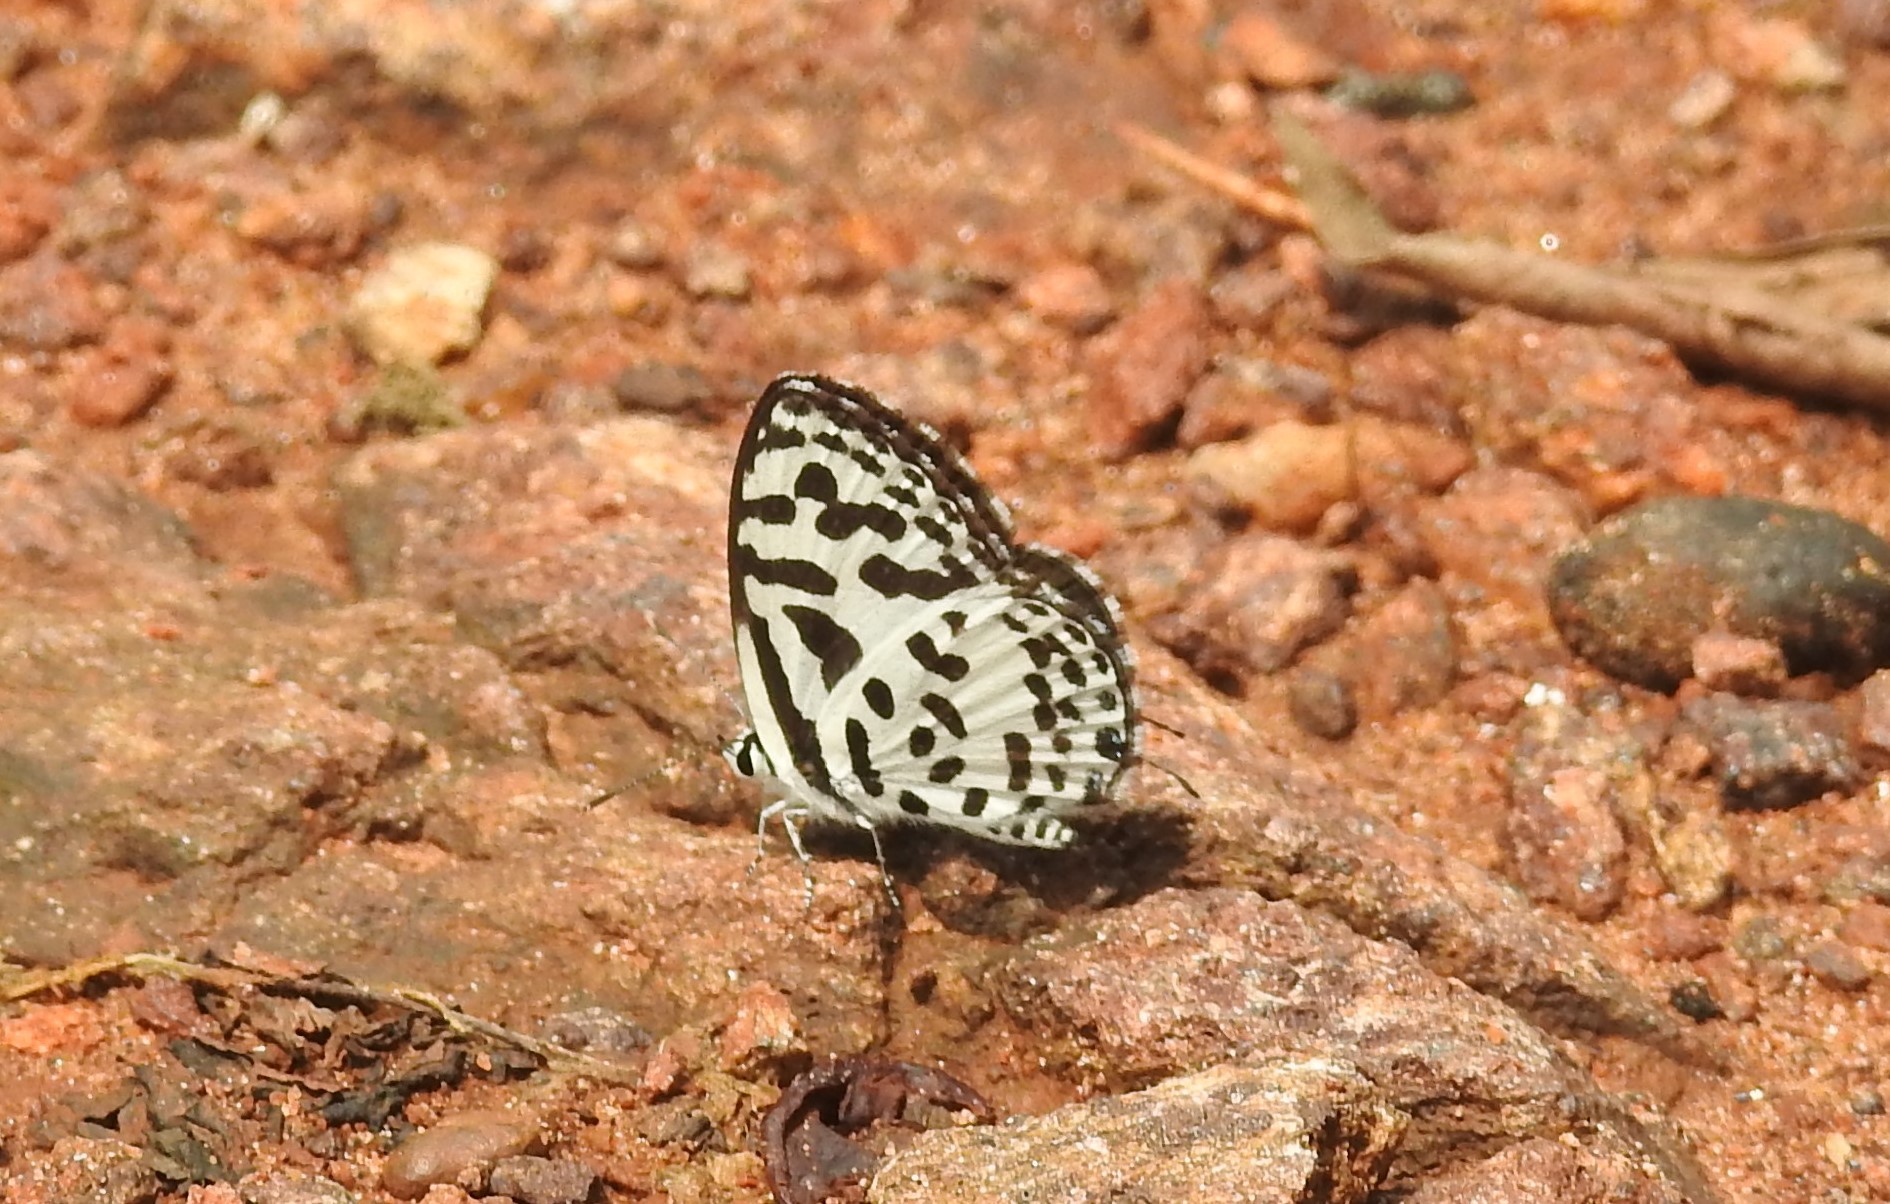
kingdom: Animalia
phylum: Arthropoda
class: Insecta
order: Lepidoptera
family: Lycaenidae
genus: Castalius
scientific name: Castalius rosimon
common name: Common pierrot
